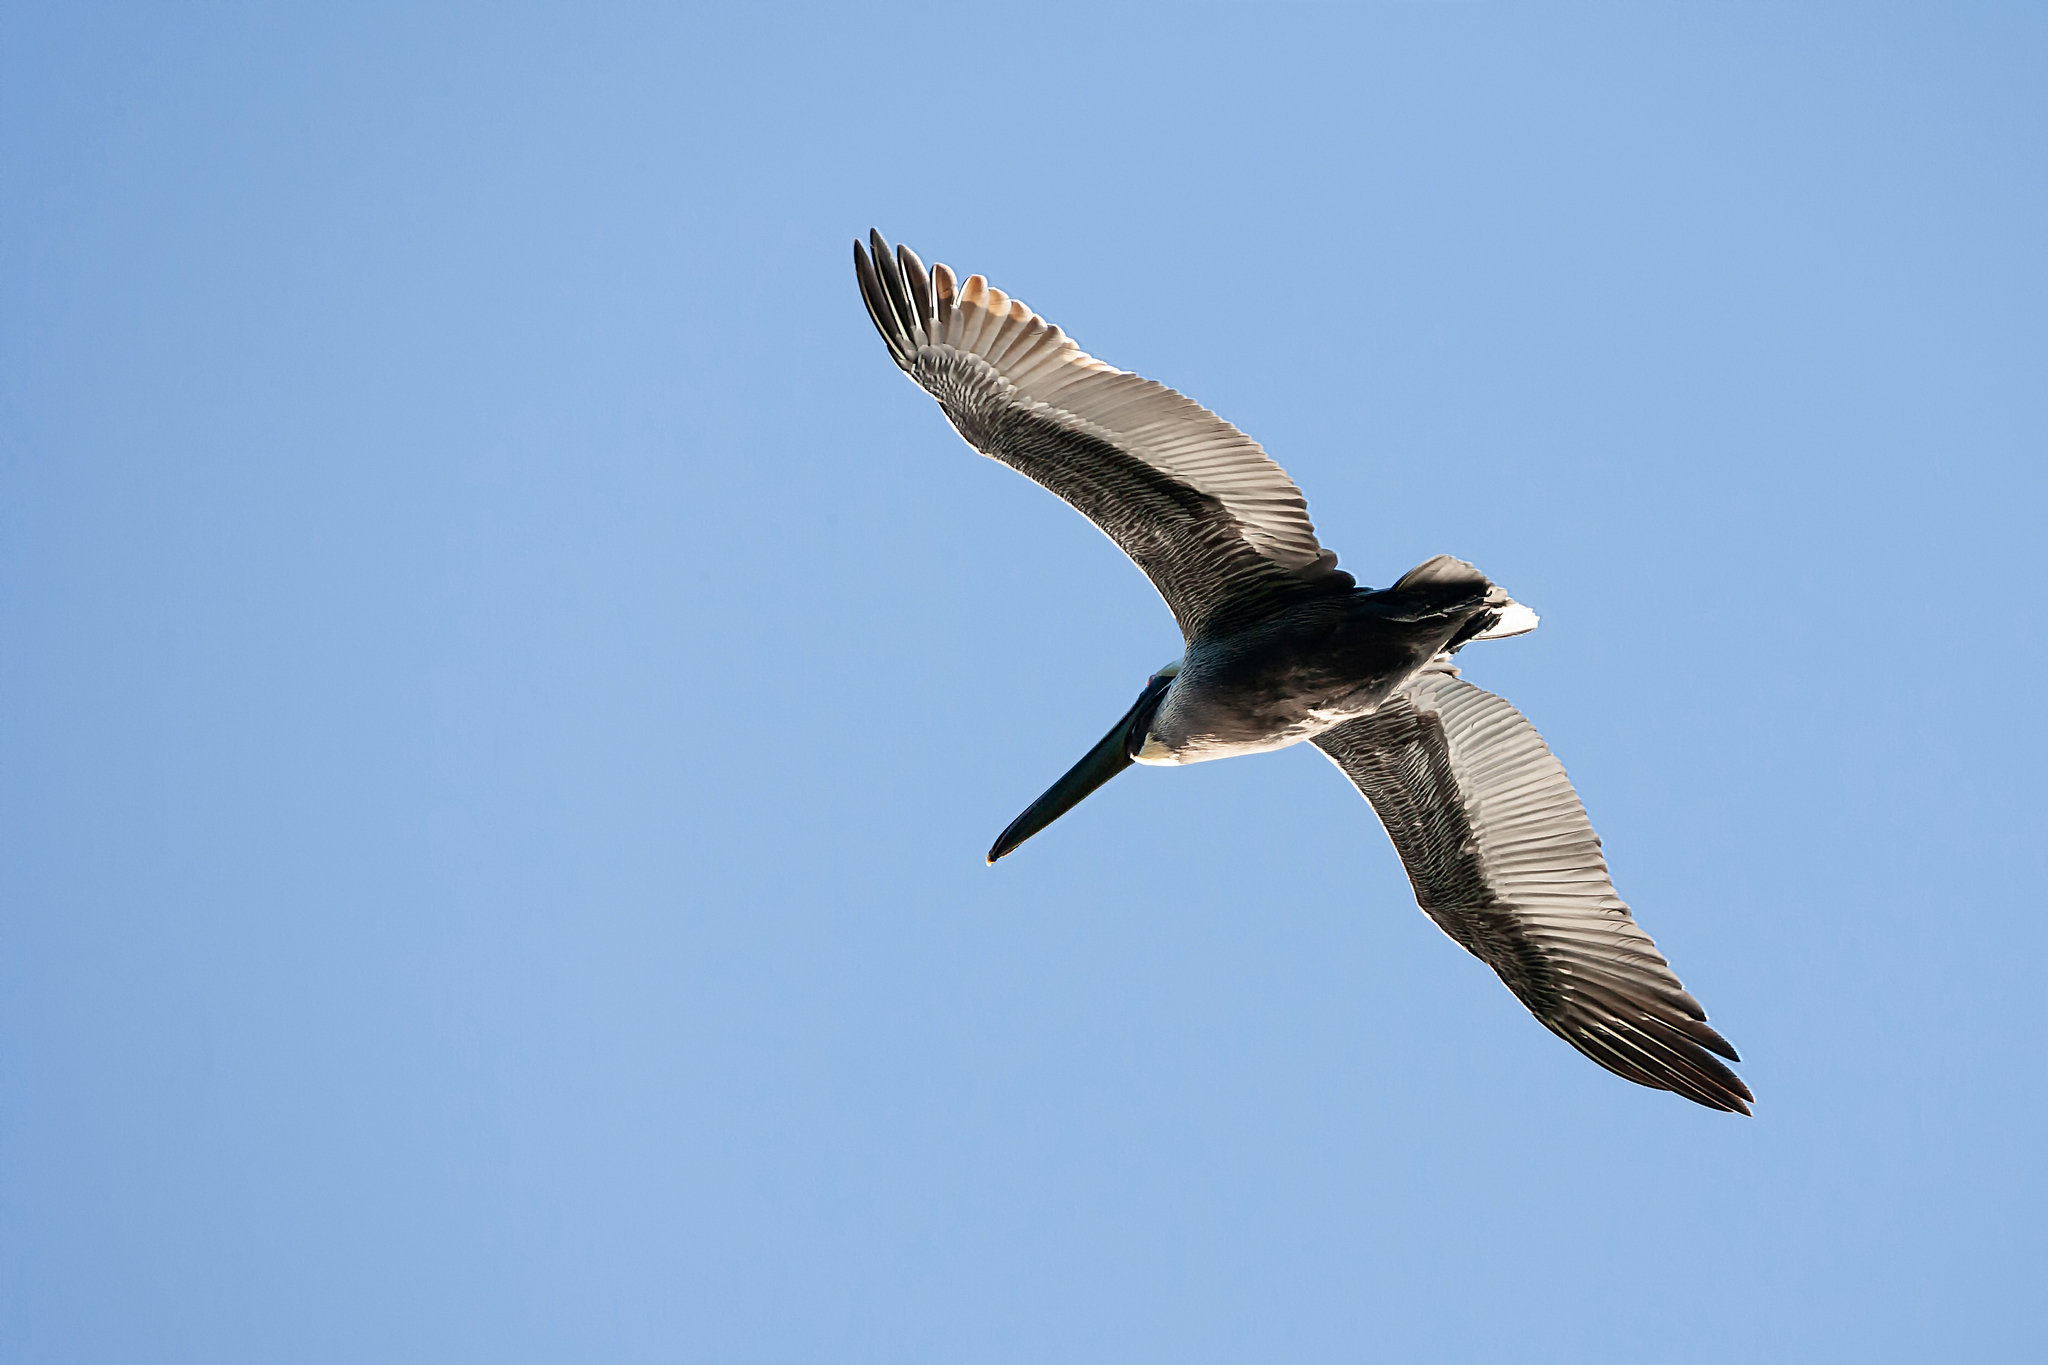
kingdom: Animalia
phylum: Chordata
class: Aves
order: Pelecaniformes
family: Pelecanidae
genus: Pelecanus
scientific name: Pelecanus occidentalis
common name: Brown pelican
